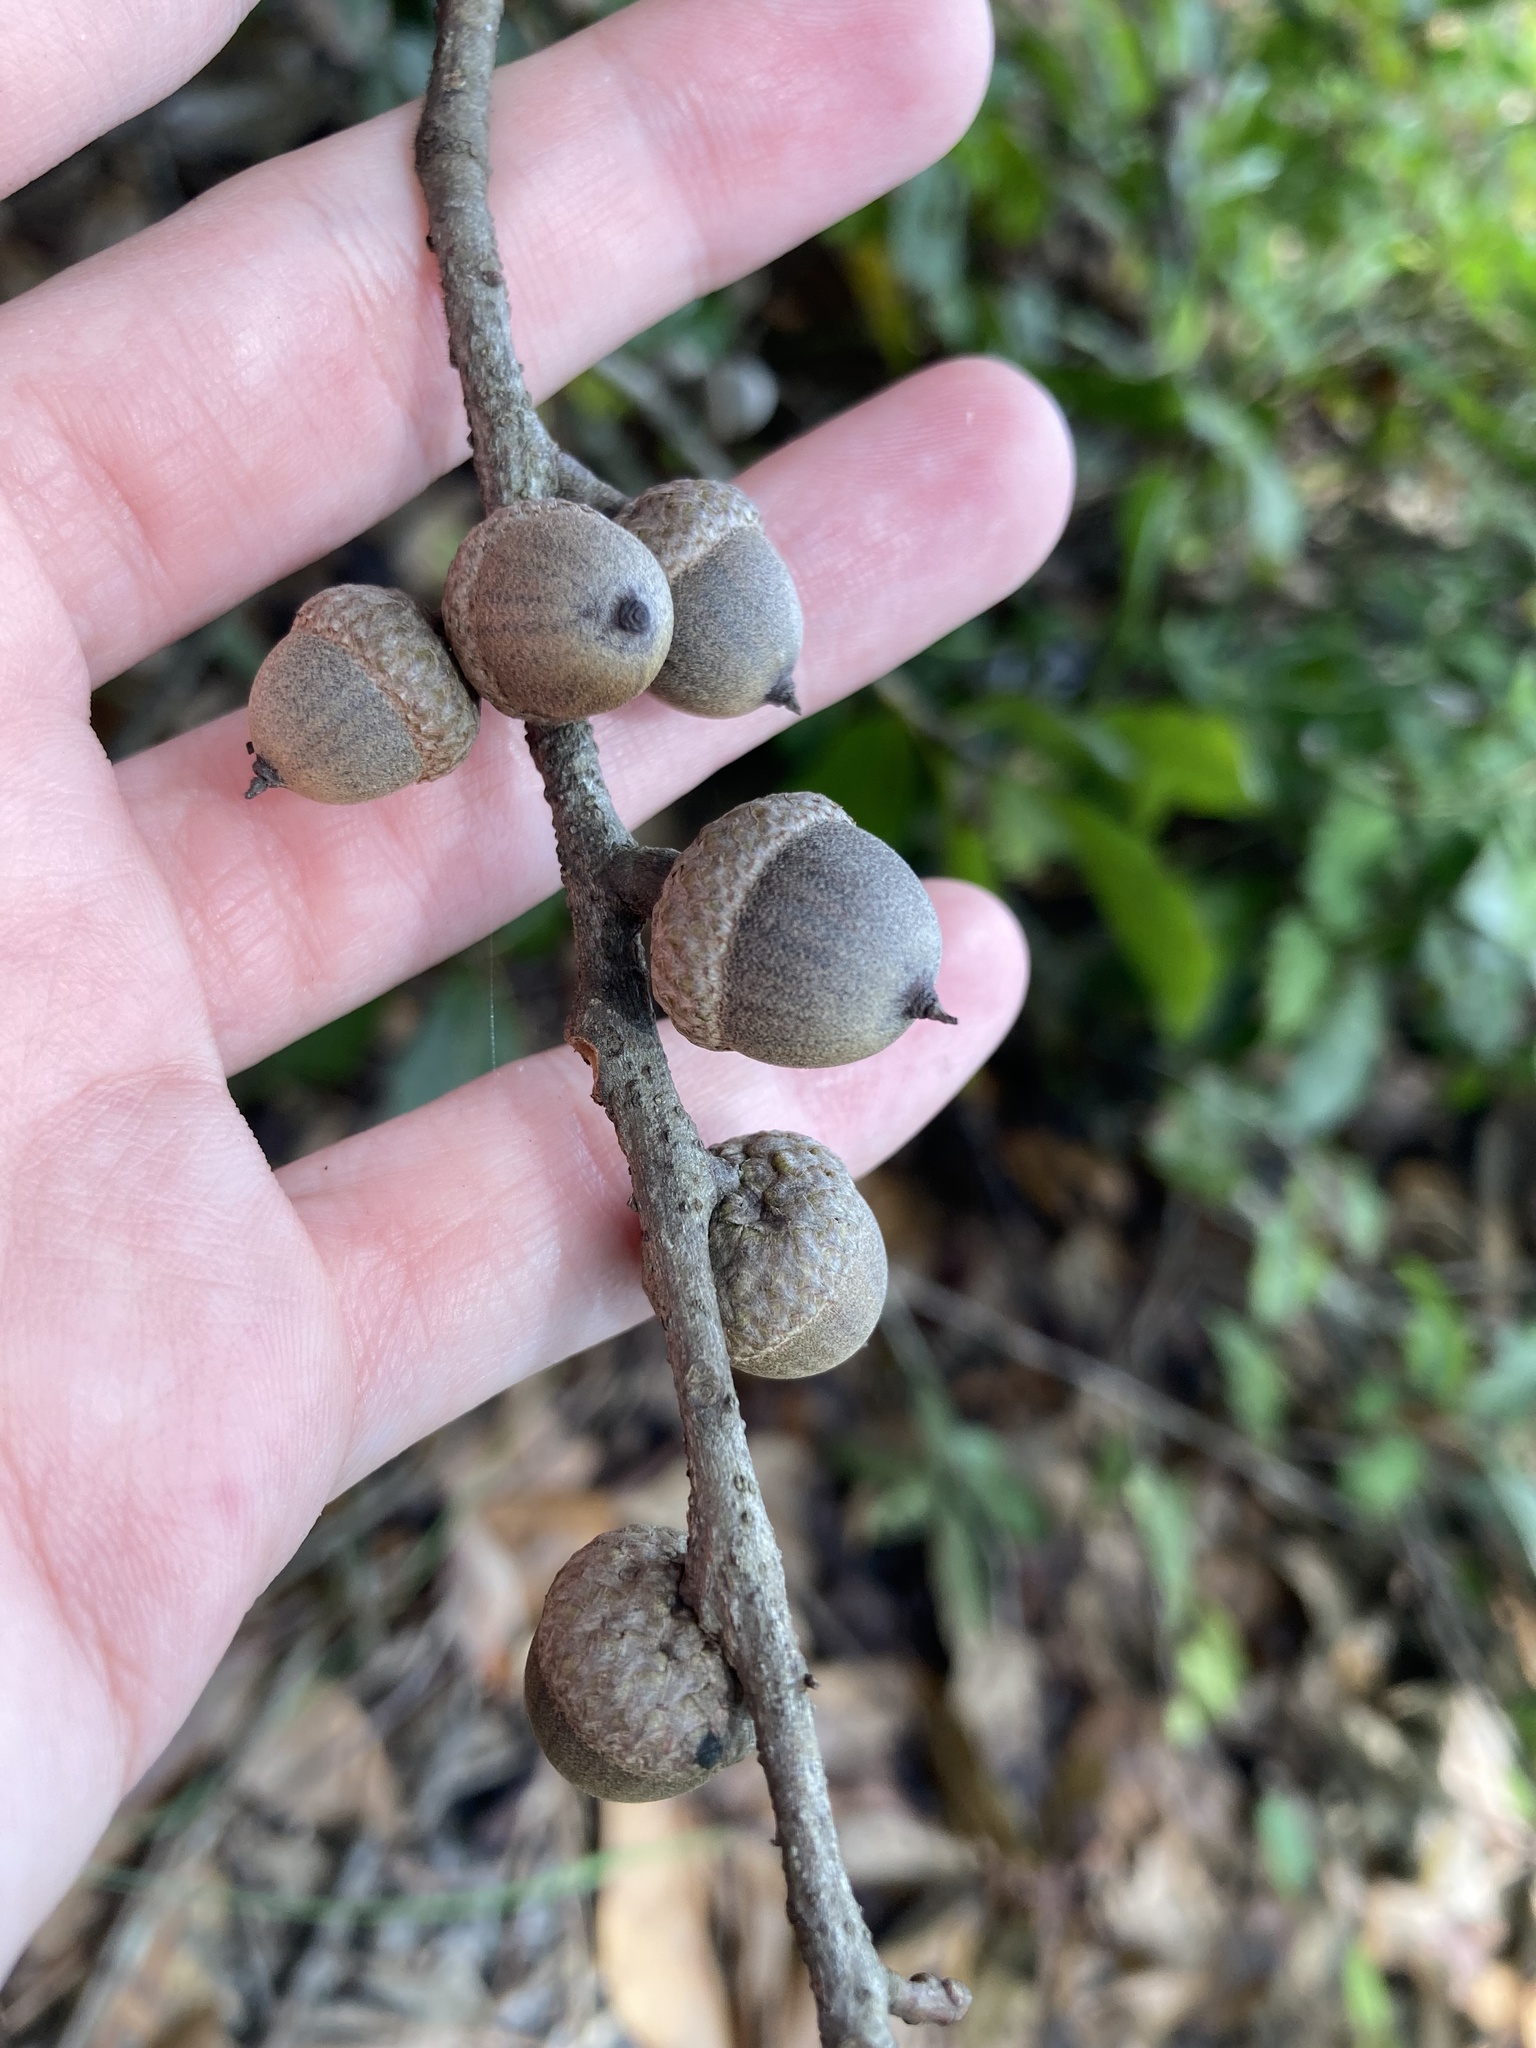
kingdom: Plantae
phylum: Tracheophyta
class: Magnoliopsida
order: Fagales
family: Fagaceae
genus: Quercus
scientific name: Quercus laurifolia
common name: Swamp laurel oak
